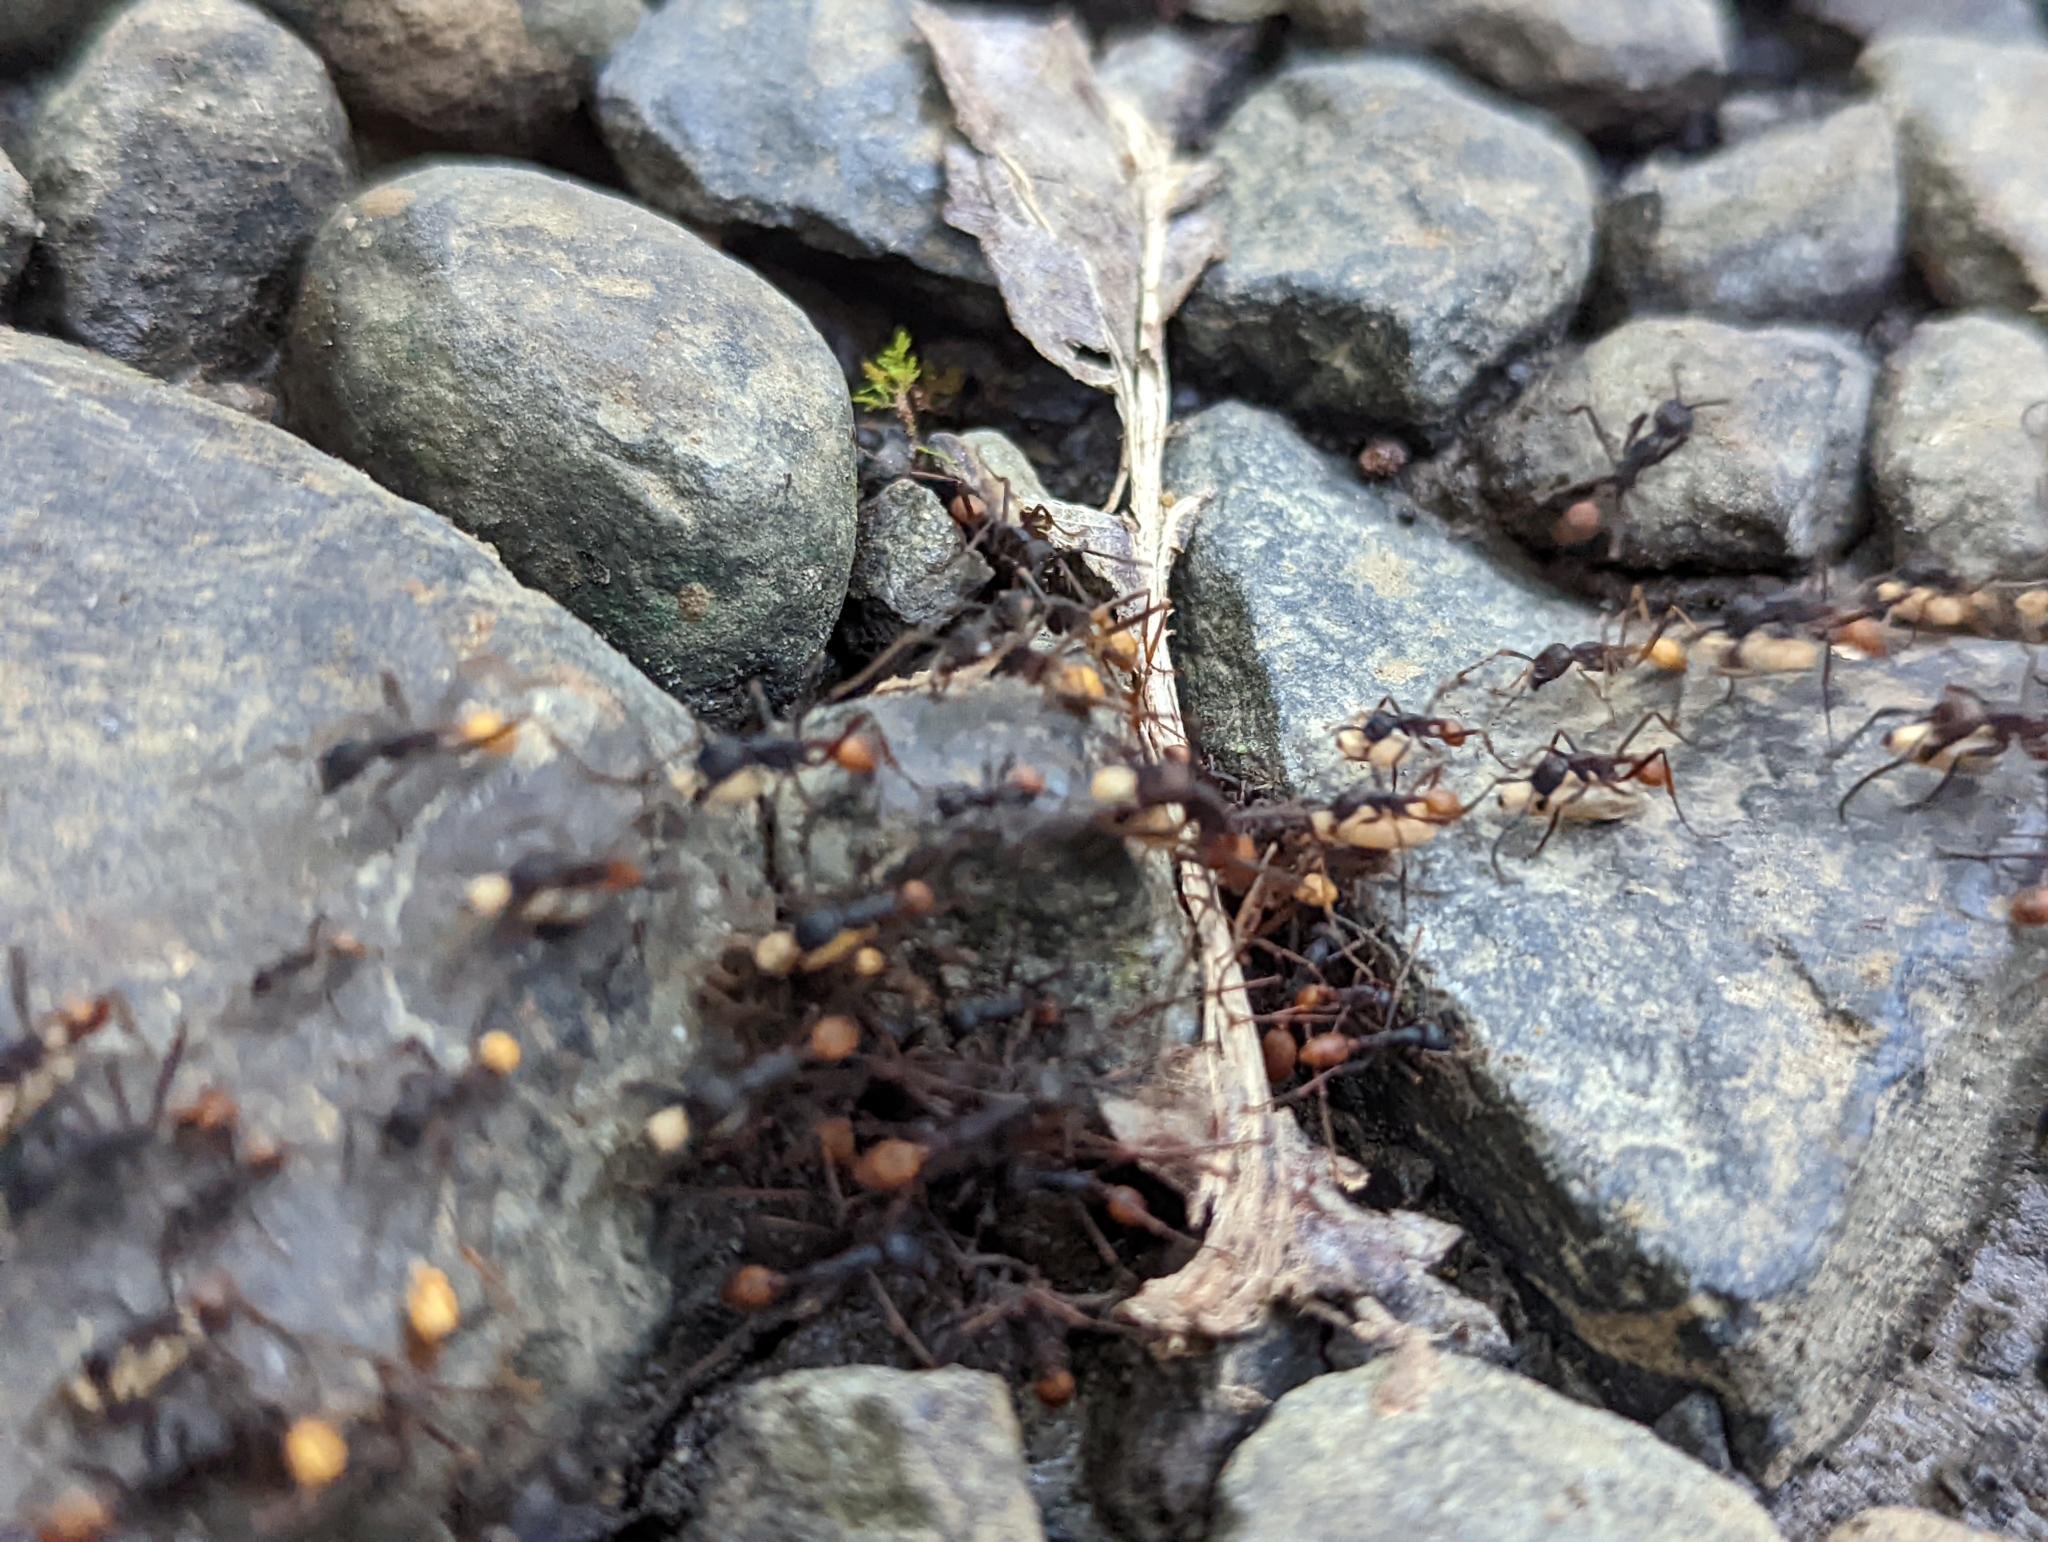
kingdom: Animalia
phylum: Arthropoda
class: Insecta
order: Hymenoptera
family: Formicidae
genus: Eciton
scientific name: Eciton burchellii
